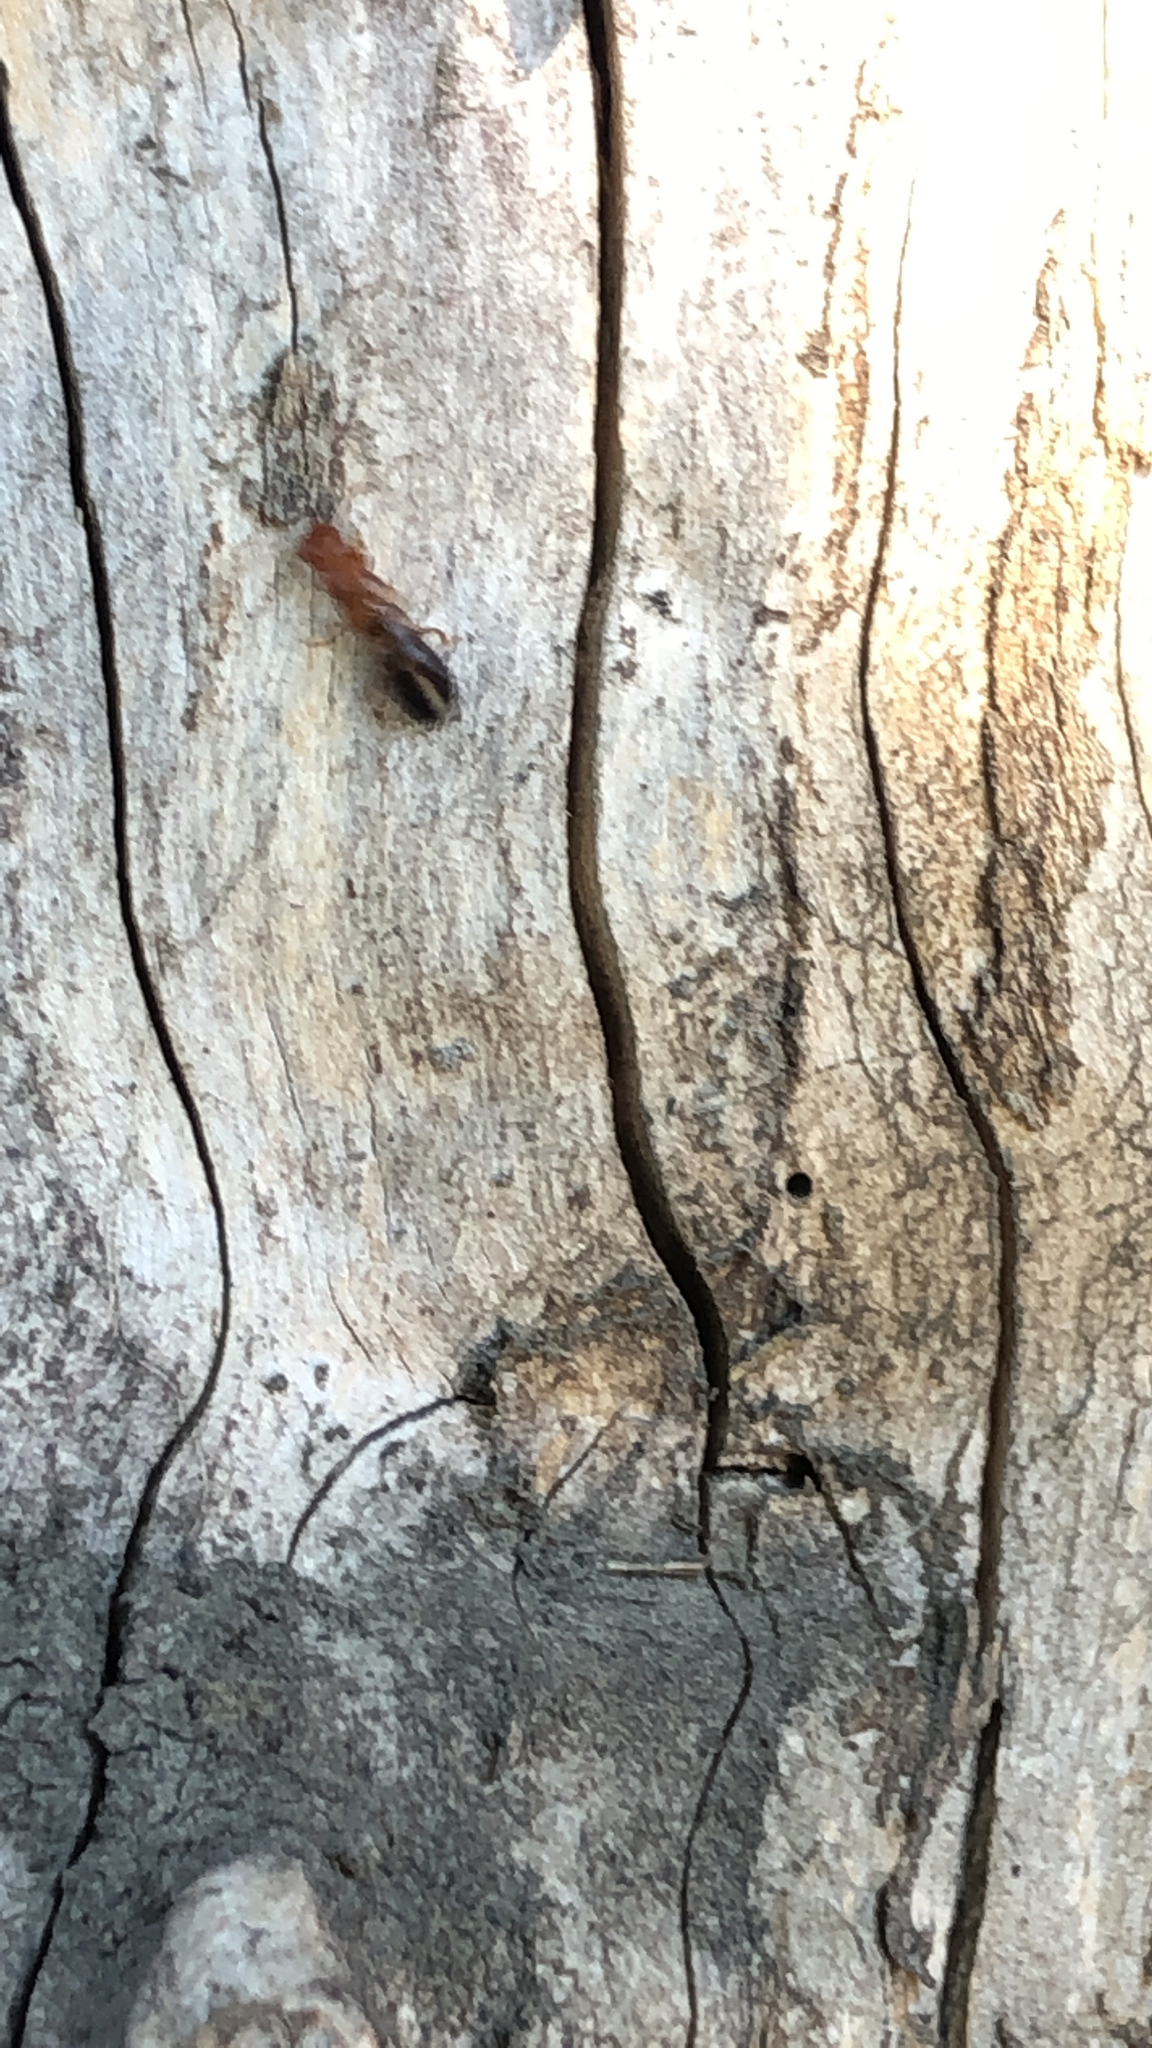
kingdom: Animalia
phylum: Arthropoda
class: Insecta
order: Blattodea
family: Kalotermitidae
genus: Incisitermes
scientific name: Incisitermes minor
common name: Termite
